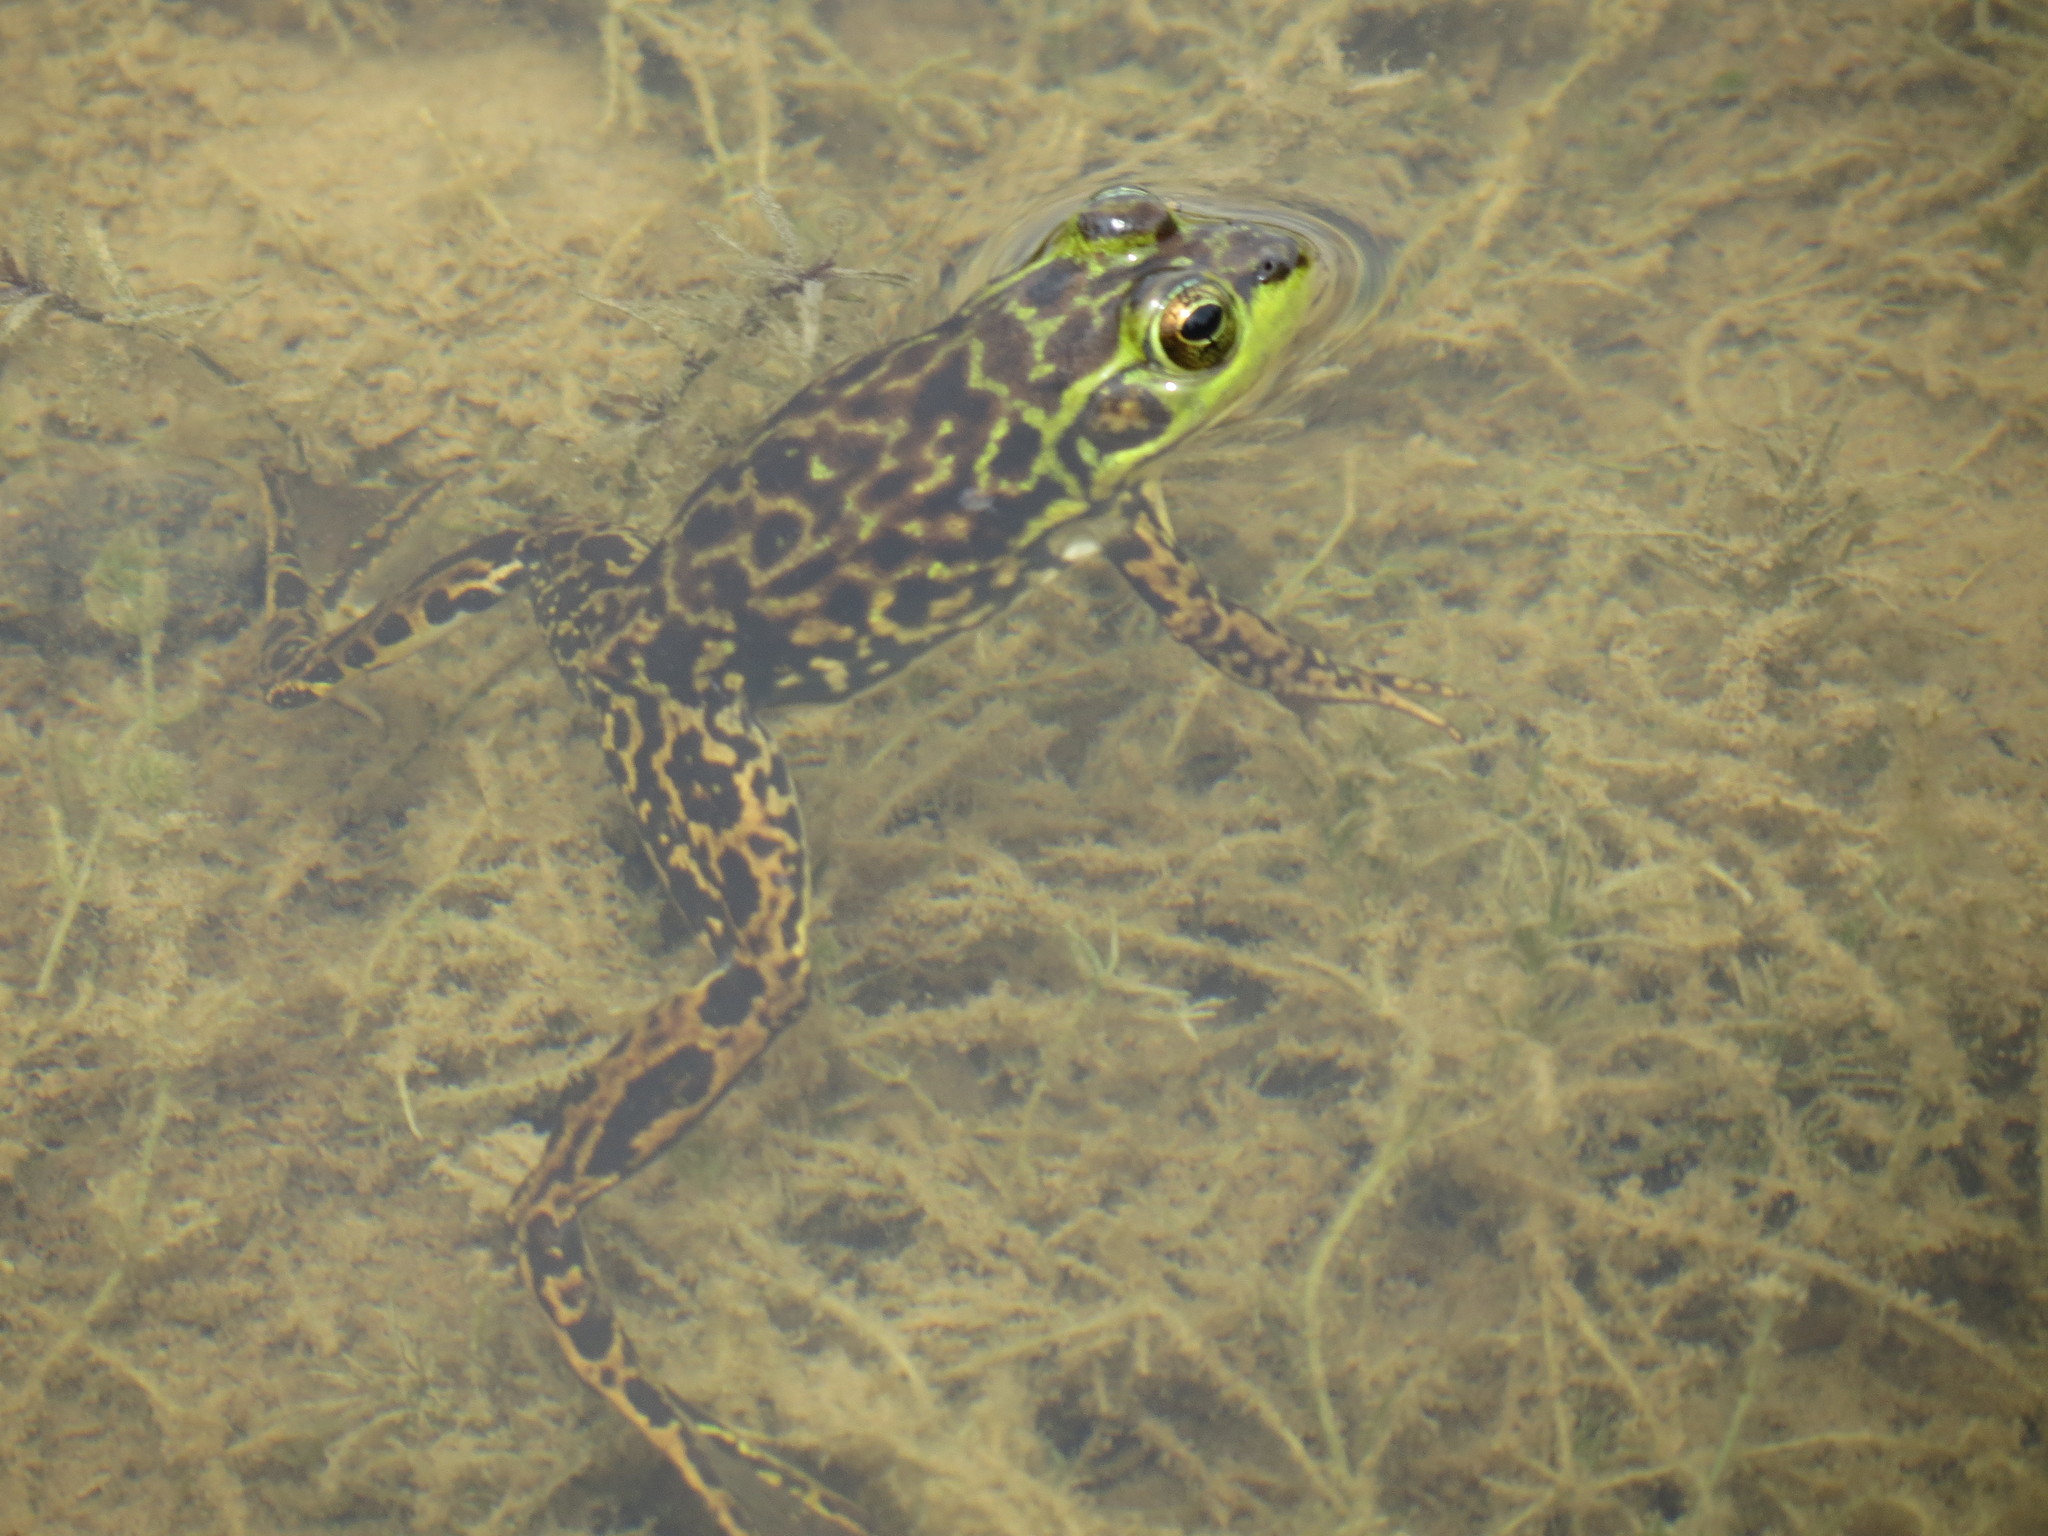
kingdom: Animalia
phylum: Chordata
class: Amphibia
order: Anura
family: Ranidae
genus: Lithobates
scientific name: Lithobates septentrionalis
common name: Mink frog
